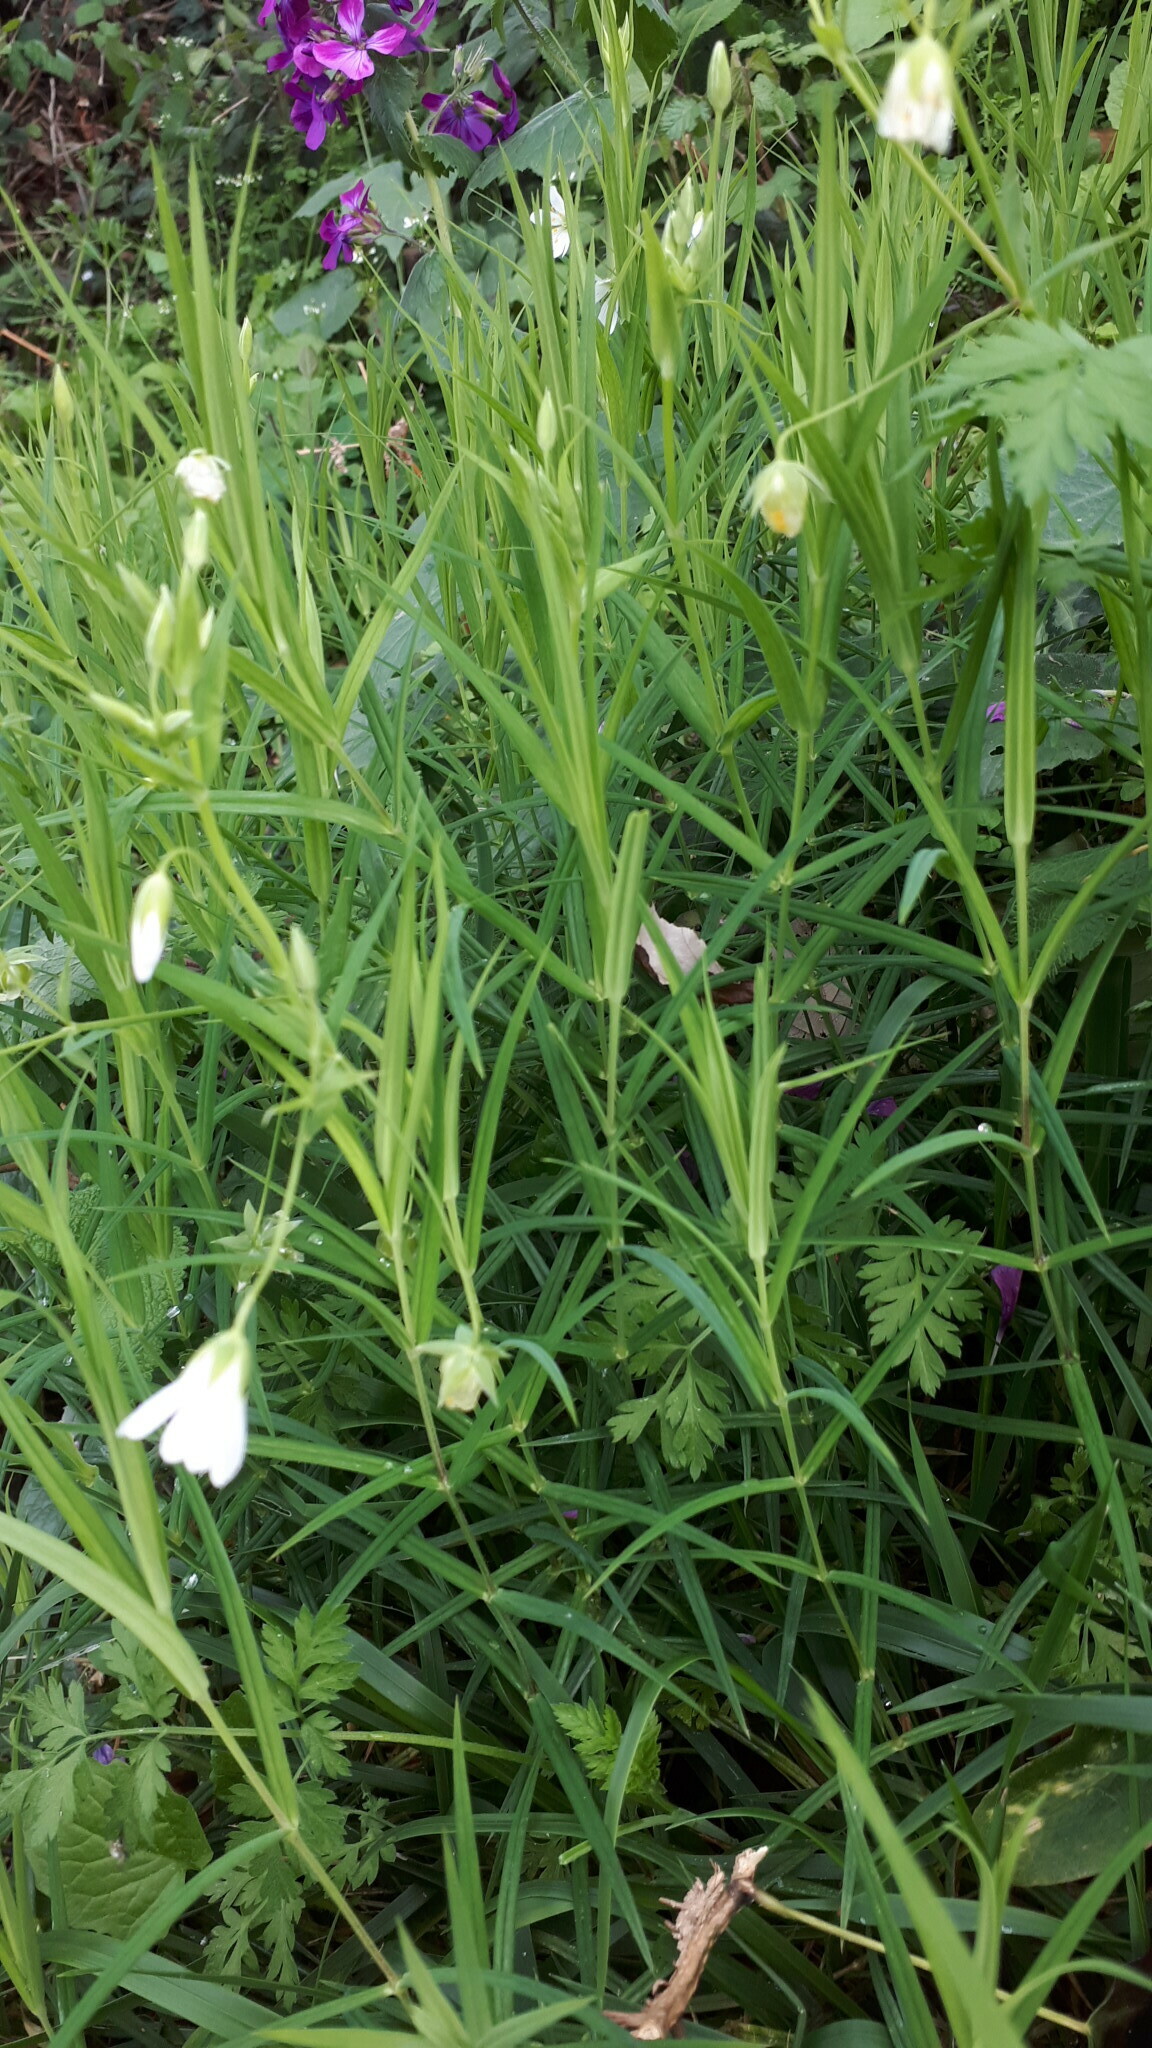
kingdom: Plantae
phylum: Tracheophyta
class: Magnoliopsida
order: Caryophyllales
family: Caryophyllaceae
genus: Rabelera
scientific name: Rabelera holostea
